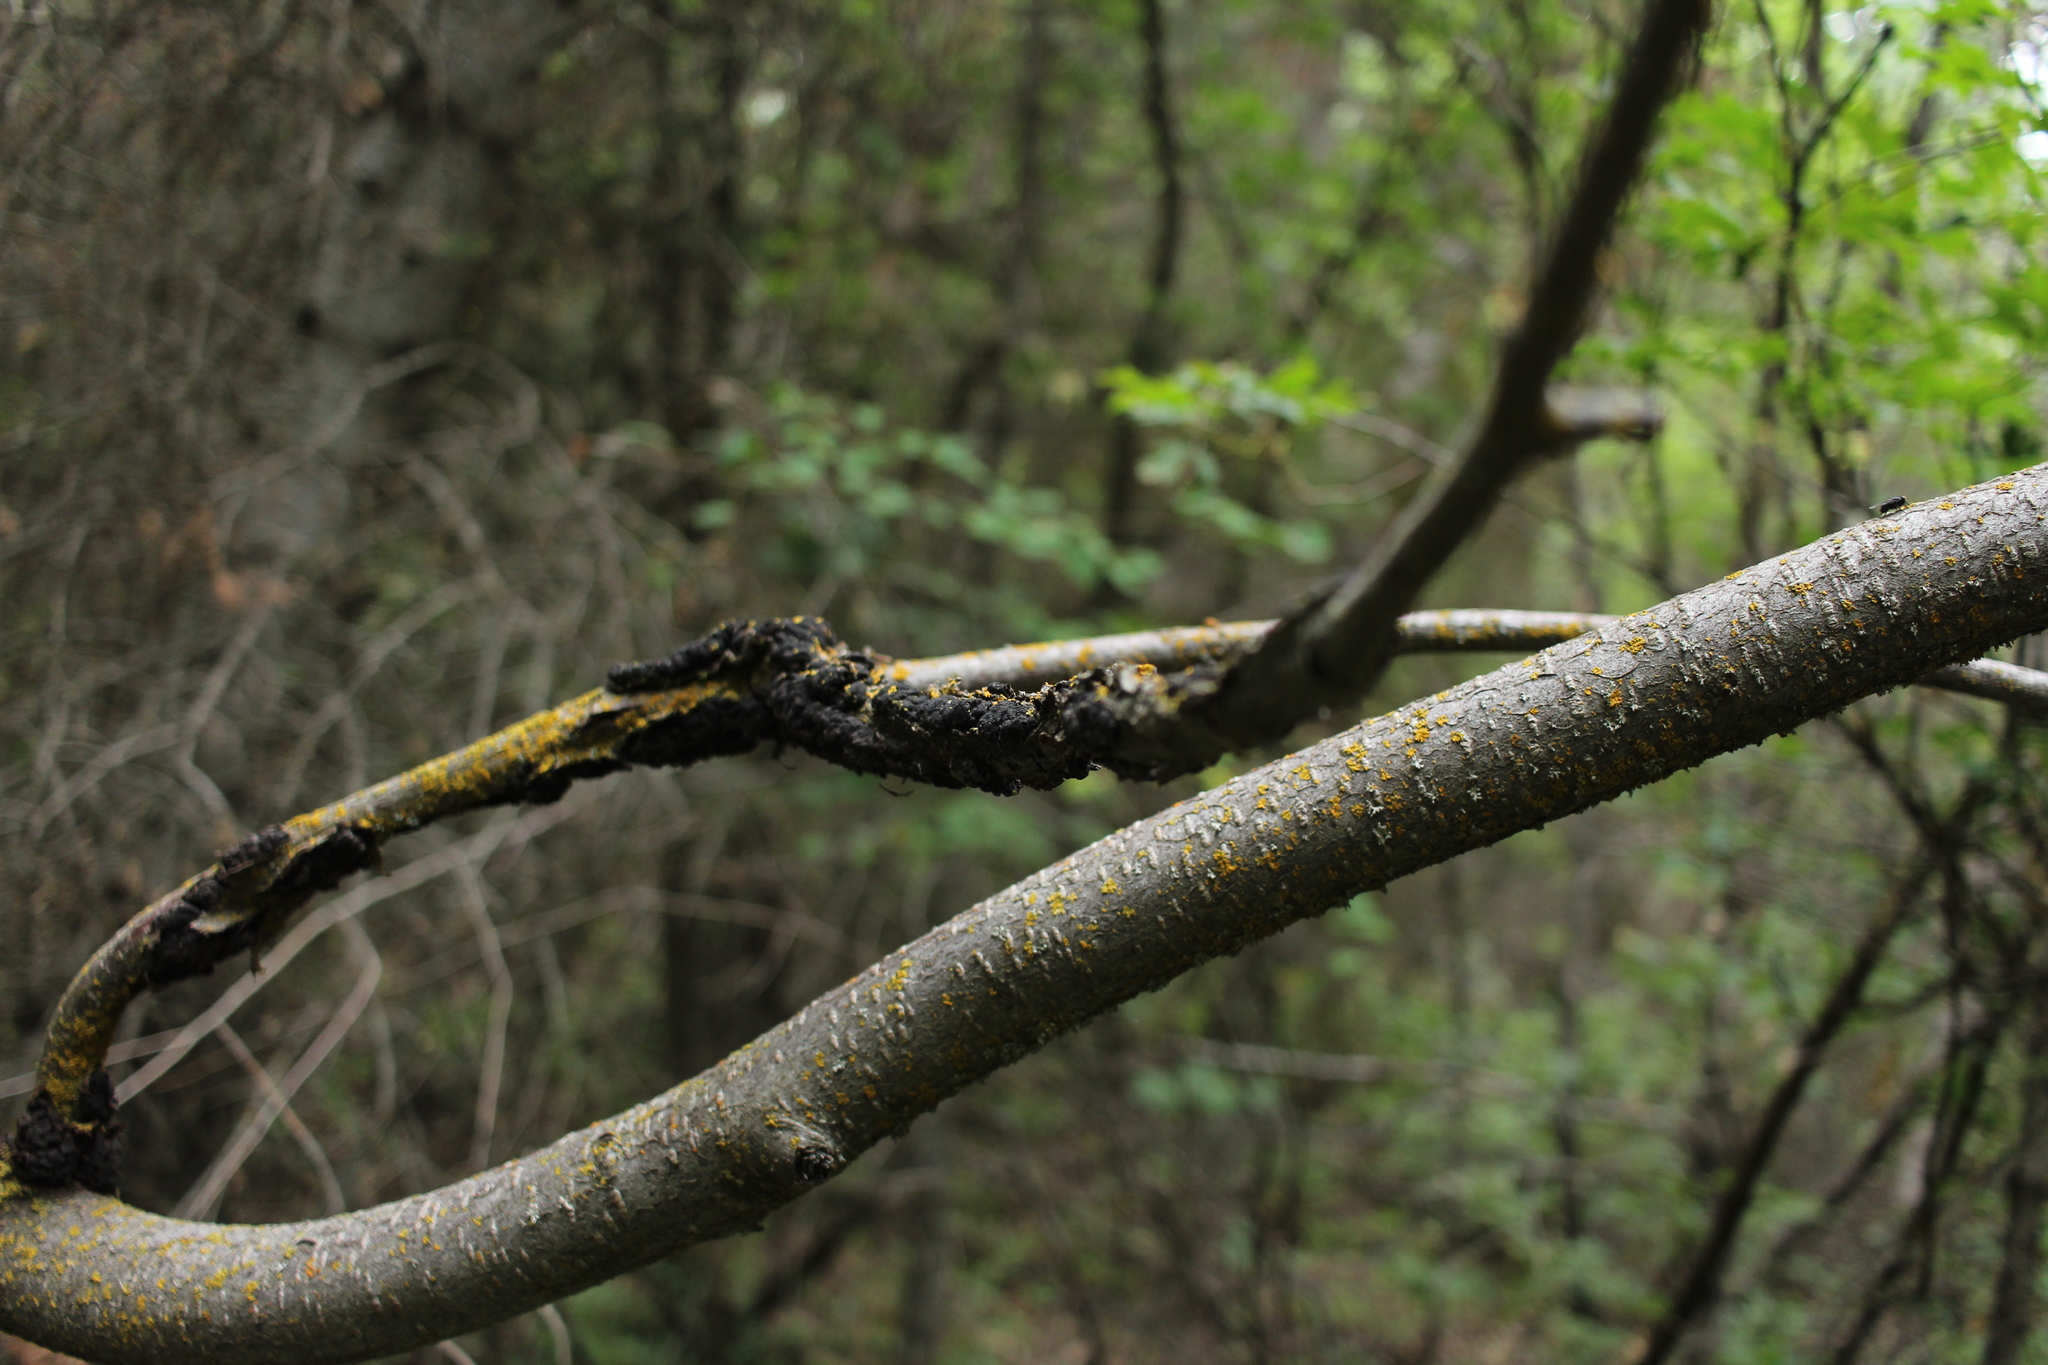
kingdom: Fungi
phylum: Ascomycota
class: Dothideomycetes
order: Venturiales
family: Venturiaceae
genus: Apiosporina
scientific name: Apiosporina morbosa
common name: Black knot
